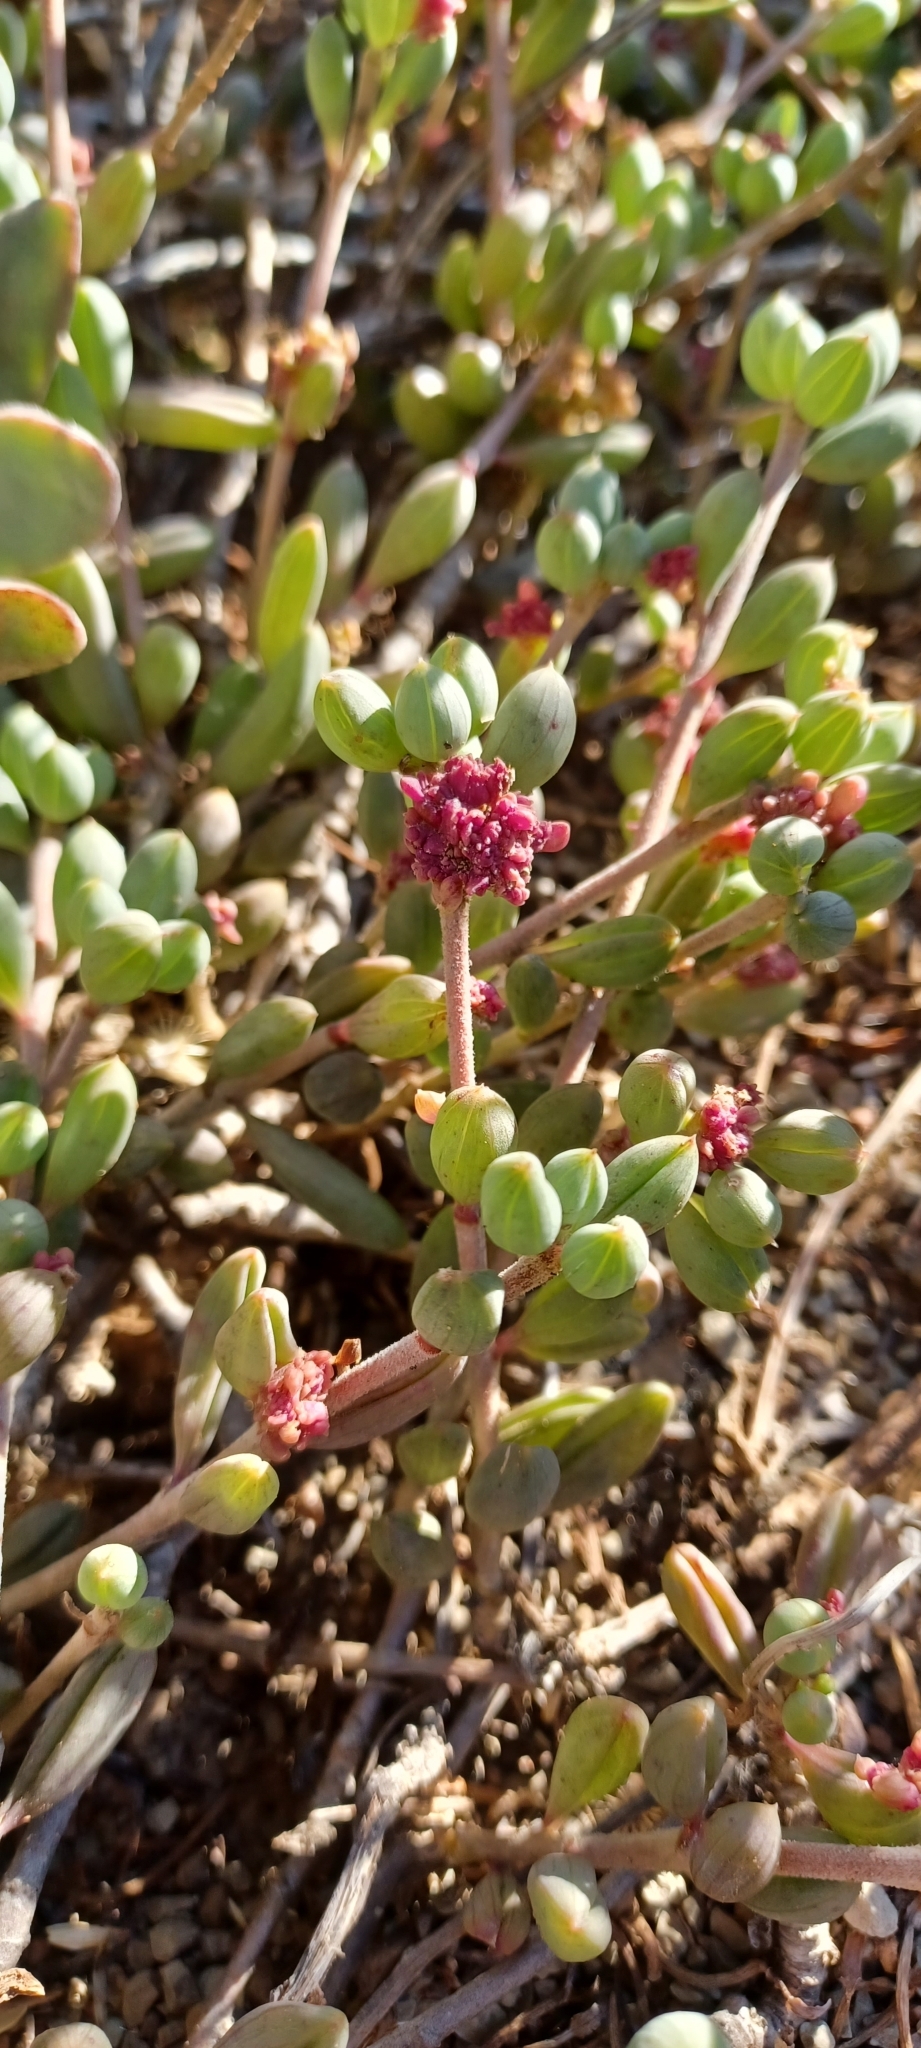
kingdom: Plantae
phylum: Tracheophyta
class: Magnoliopsida
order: Asterales
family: Asteraceae
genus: Senecio
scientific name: Senecio abbreviatus
